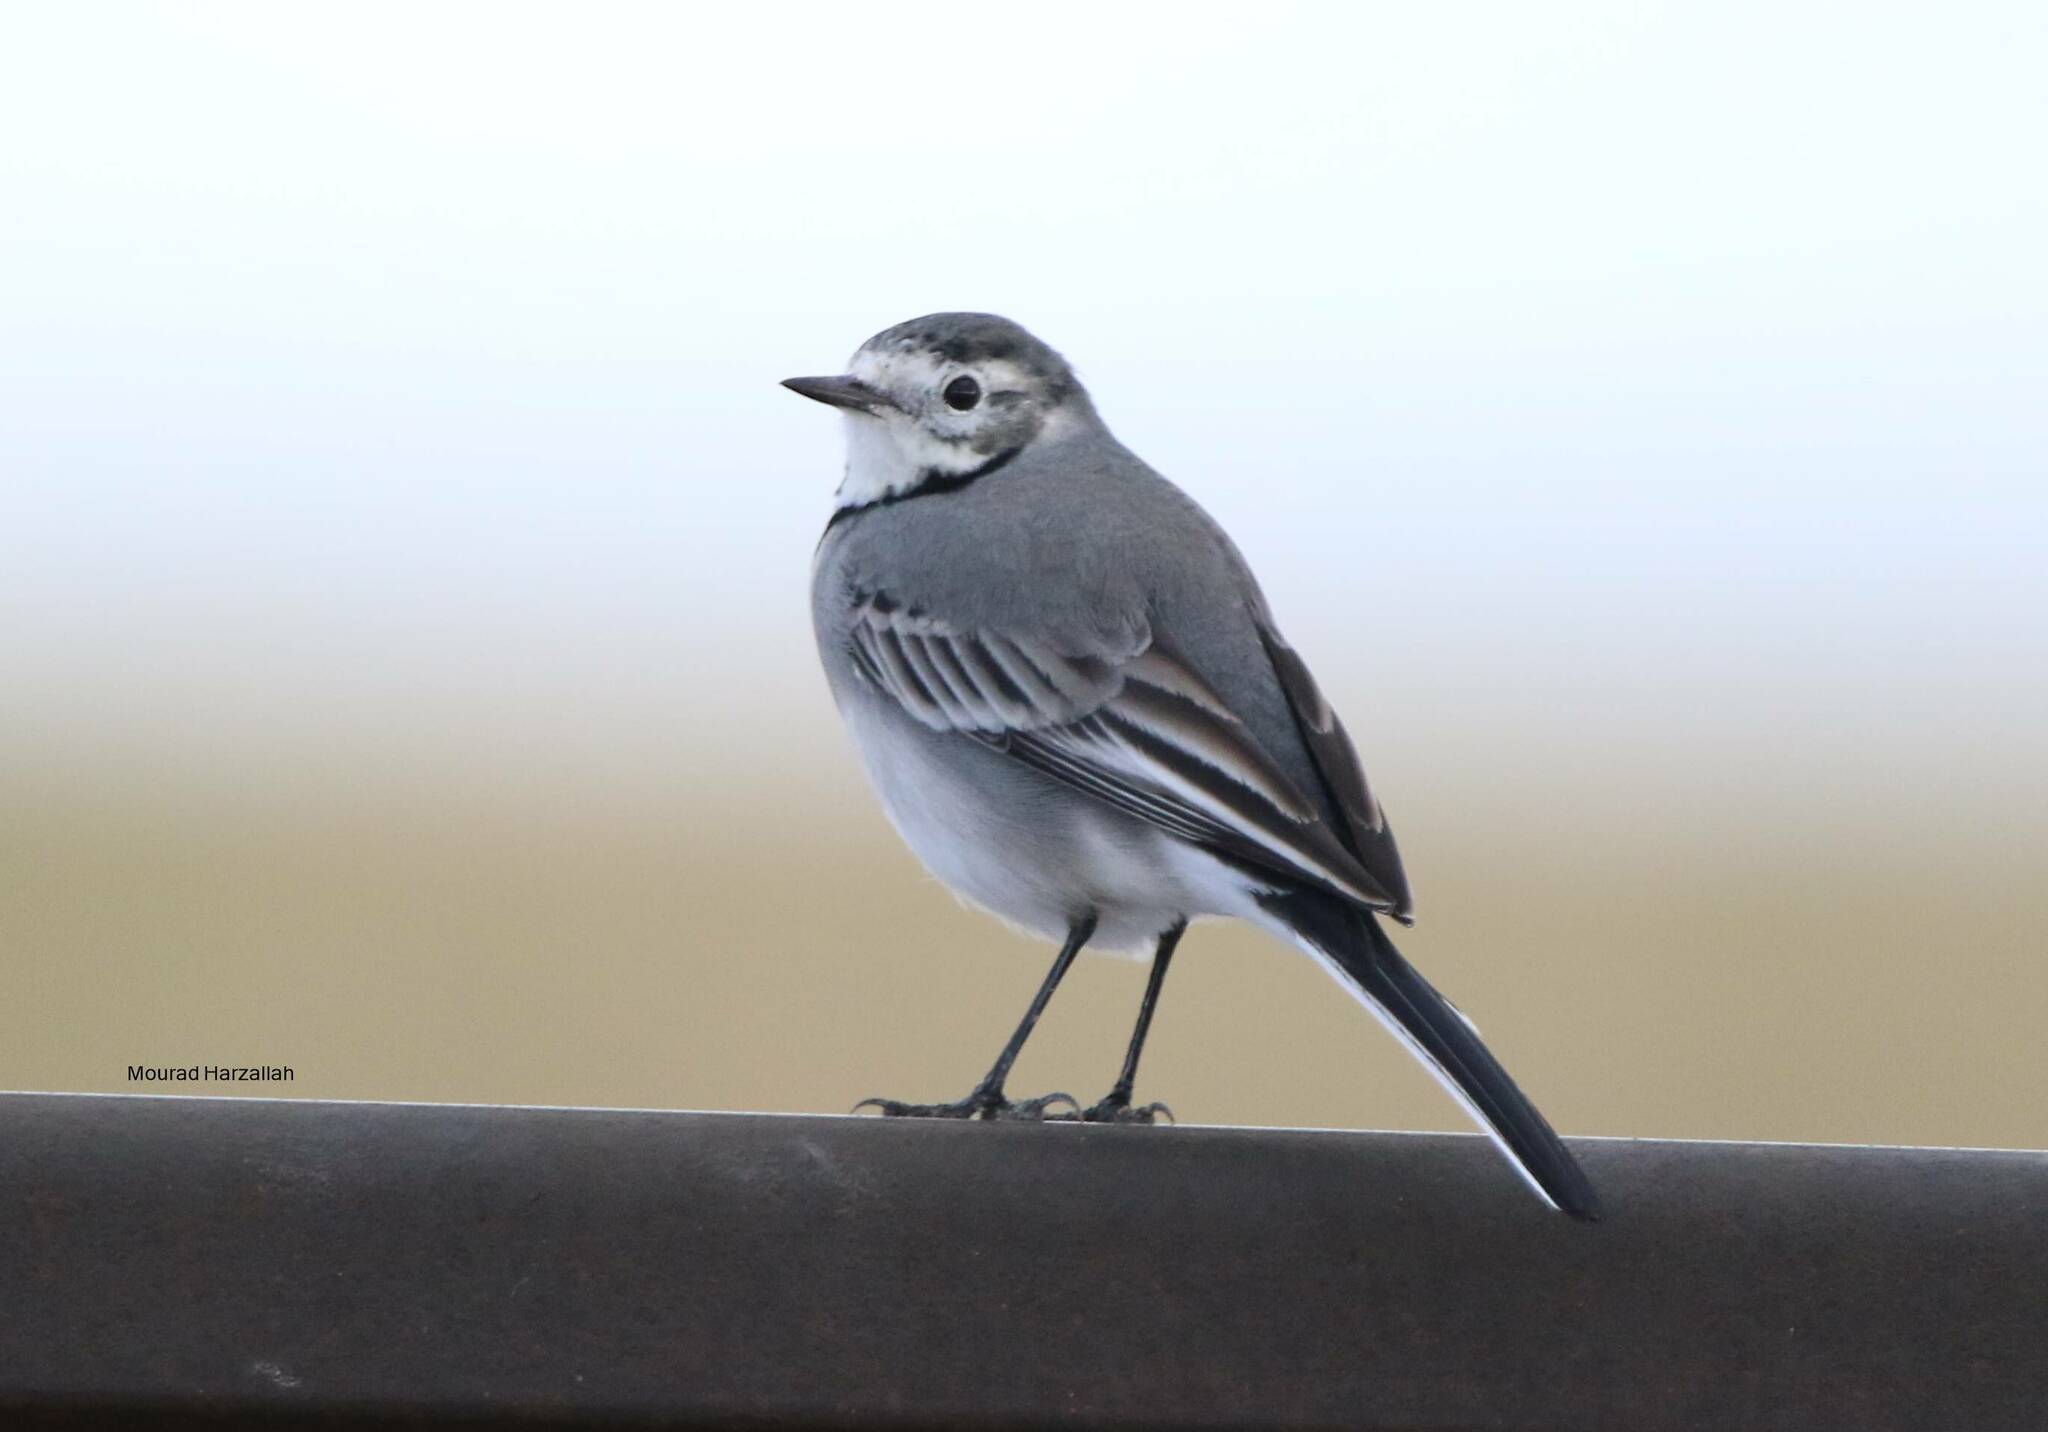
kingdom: Animalia
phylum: Chordata
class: Aves
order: Passeriformes
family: Motacillidae
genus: Motacilla
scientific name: Motacilla alba
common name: White wagtail
